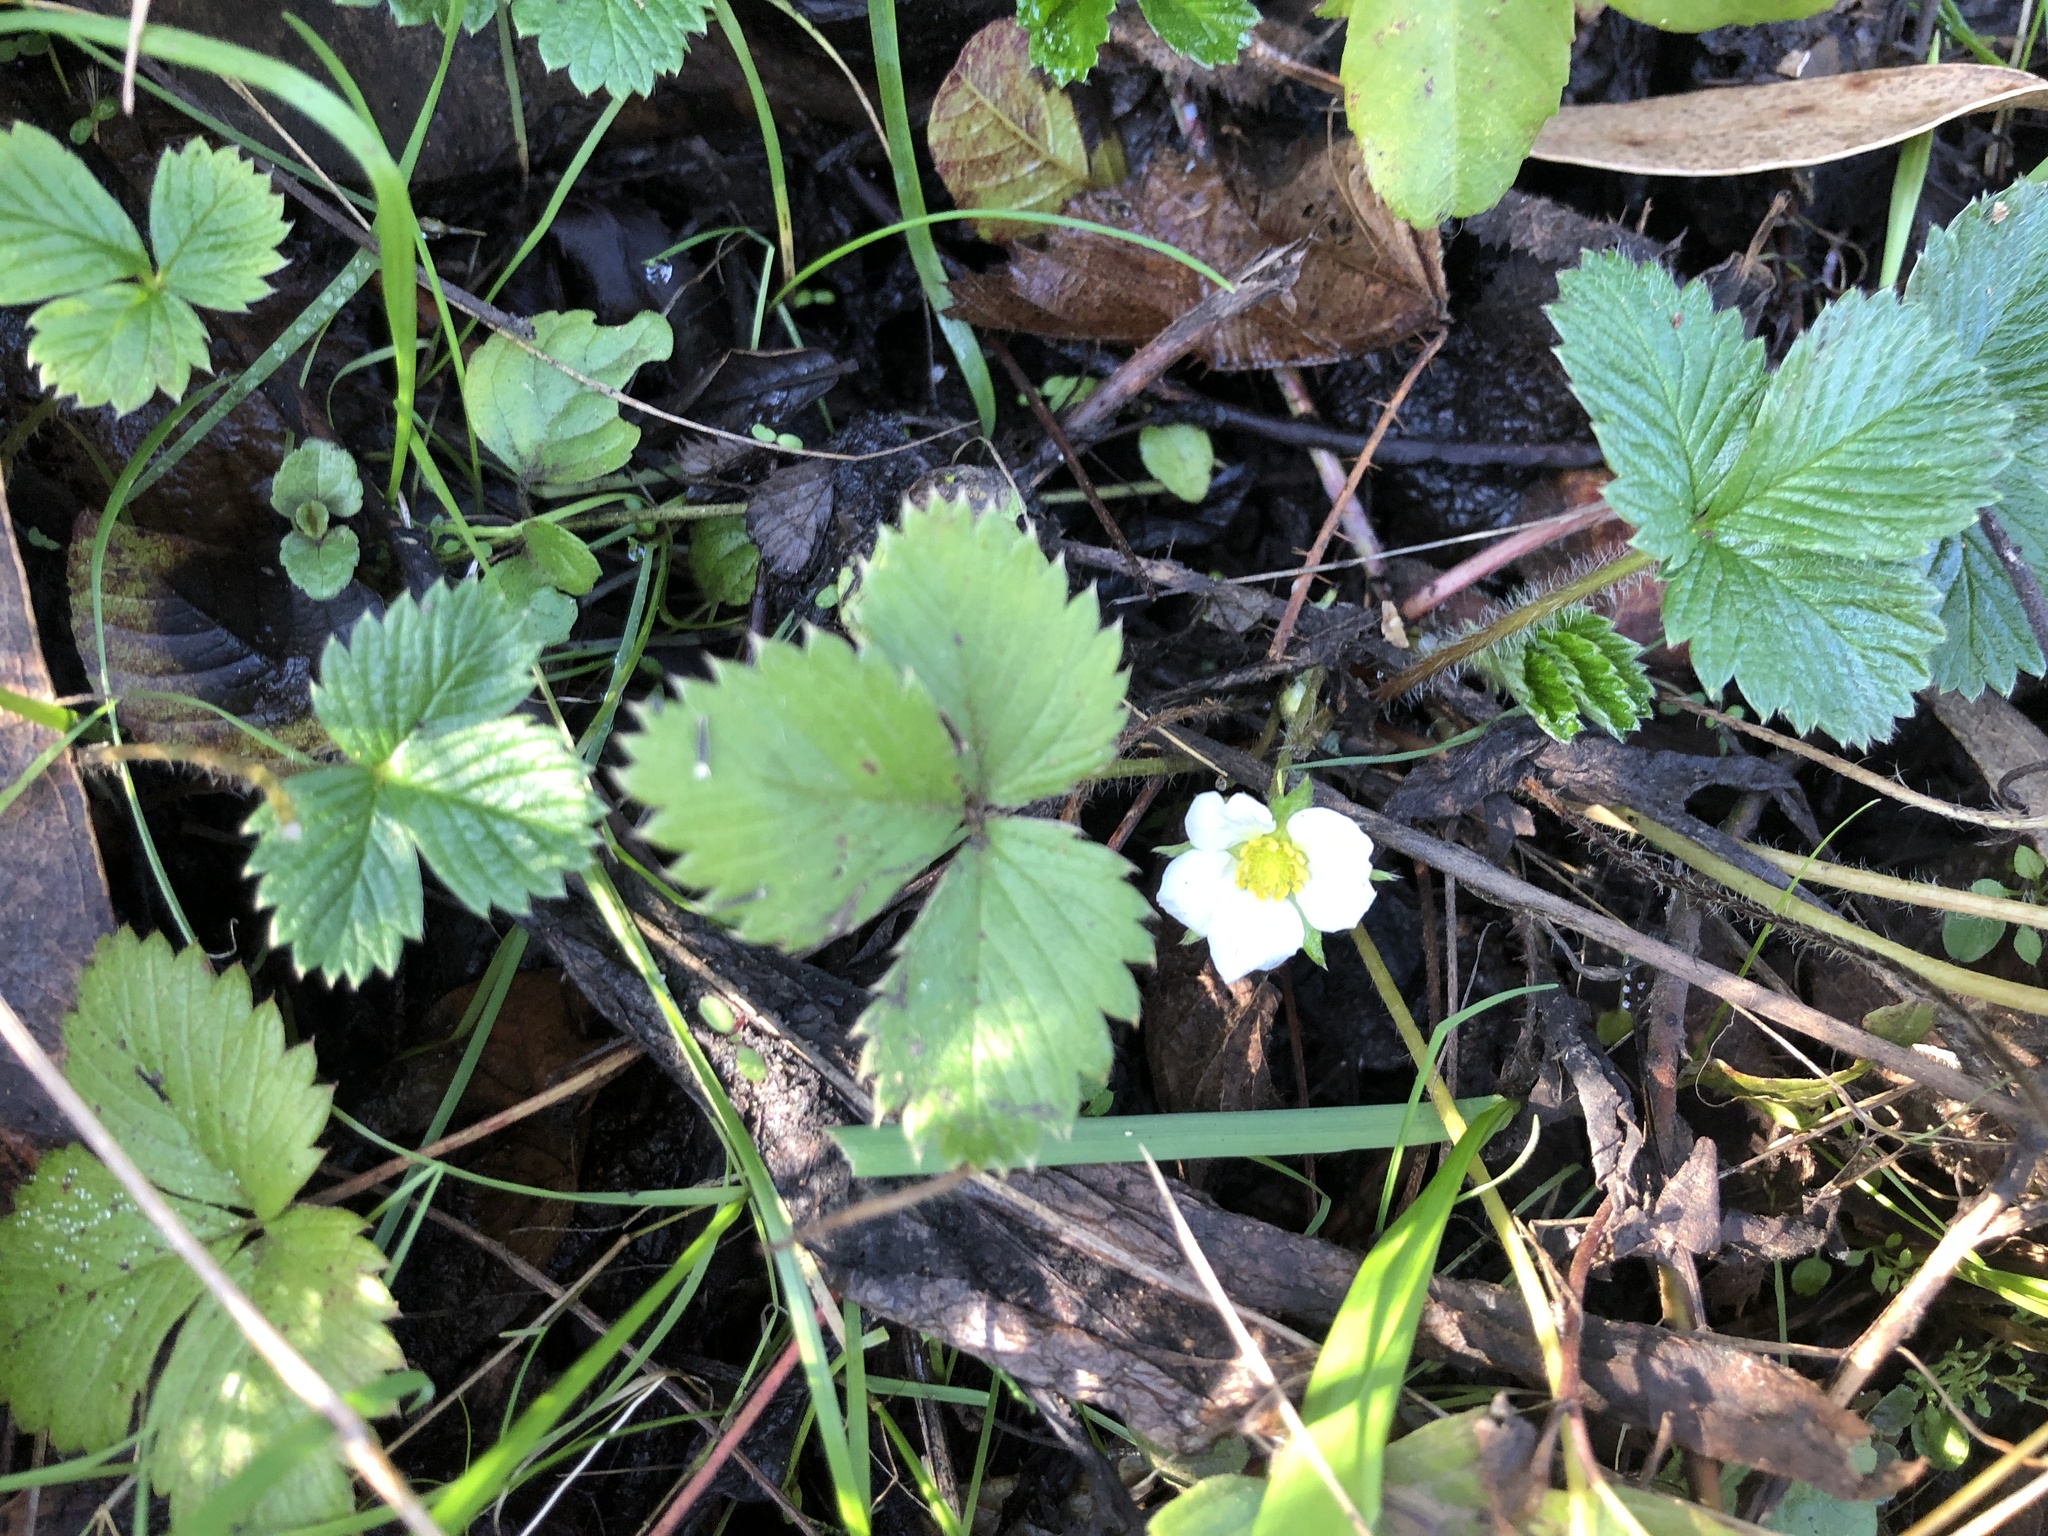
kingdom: Plantae
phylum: Tracheophyta
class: Magnoliopsida
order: Rosales
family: Rosaceae
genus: Fragaria
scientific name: Fragaria vesca
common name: Wild strawberry
